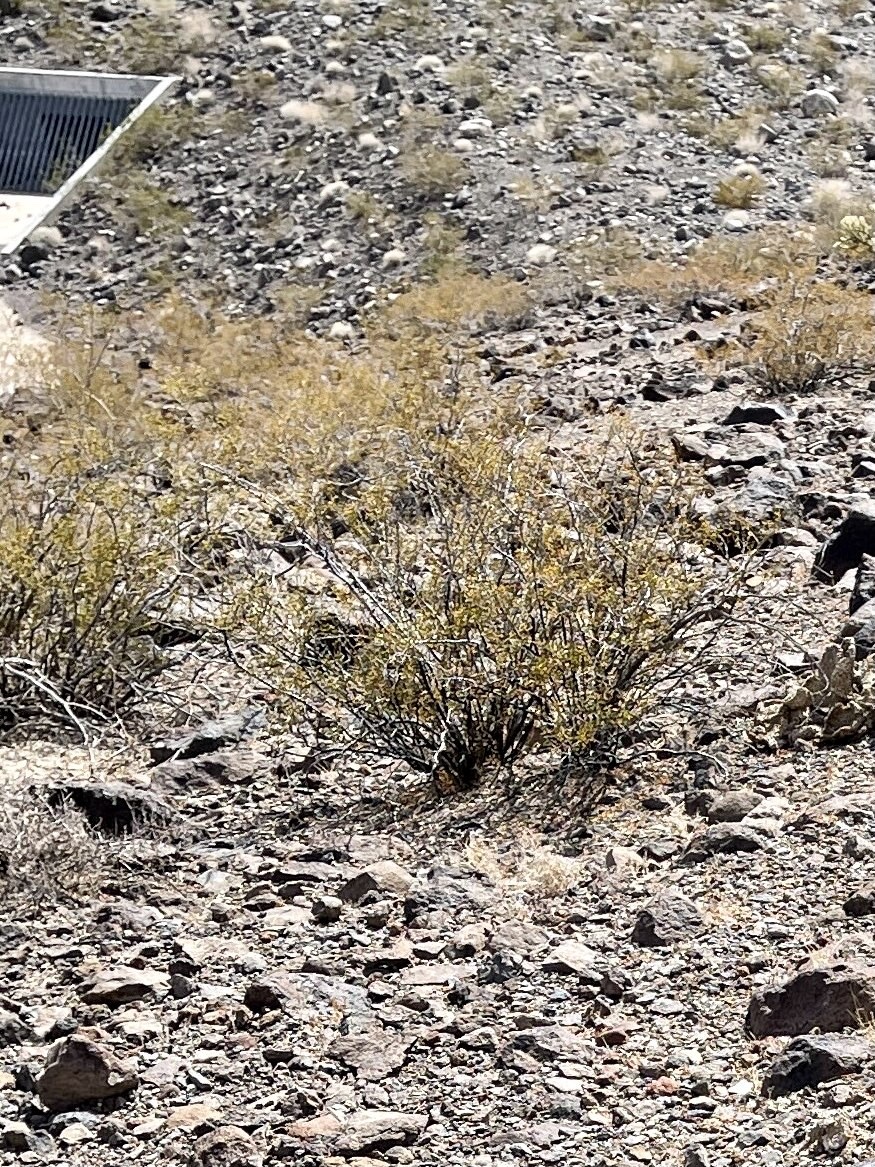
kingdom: Plantae
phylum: Tracheophyta
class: Magnoliopsida
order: Zygophyllales
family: Zygophyllaceae
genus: Larrea
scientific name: Larrea tridentata
